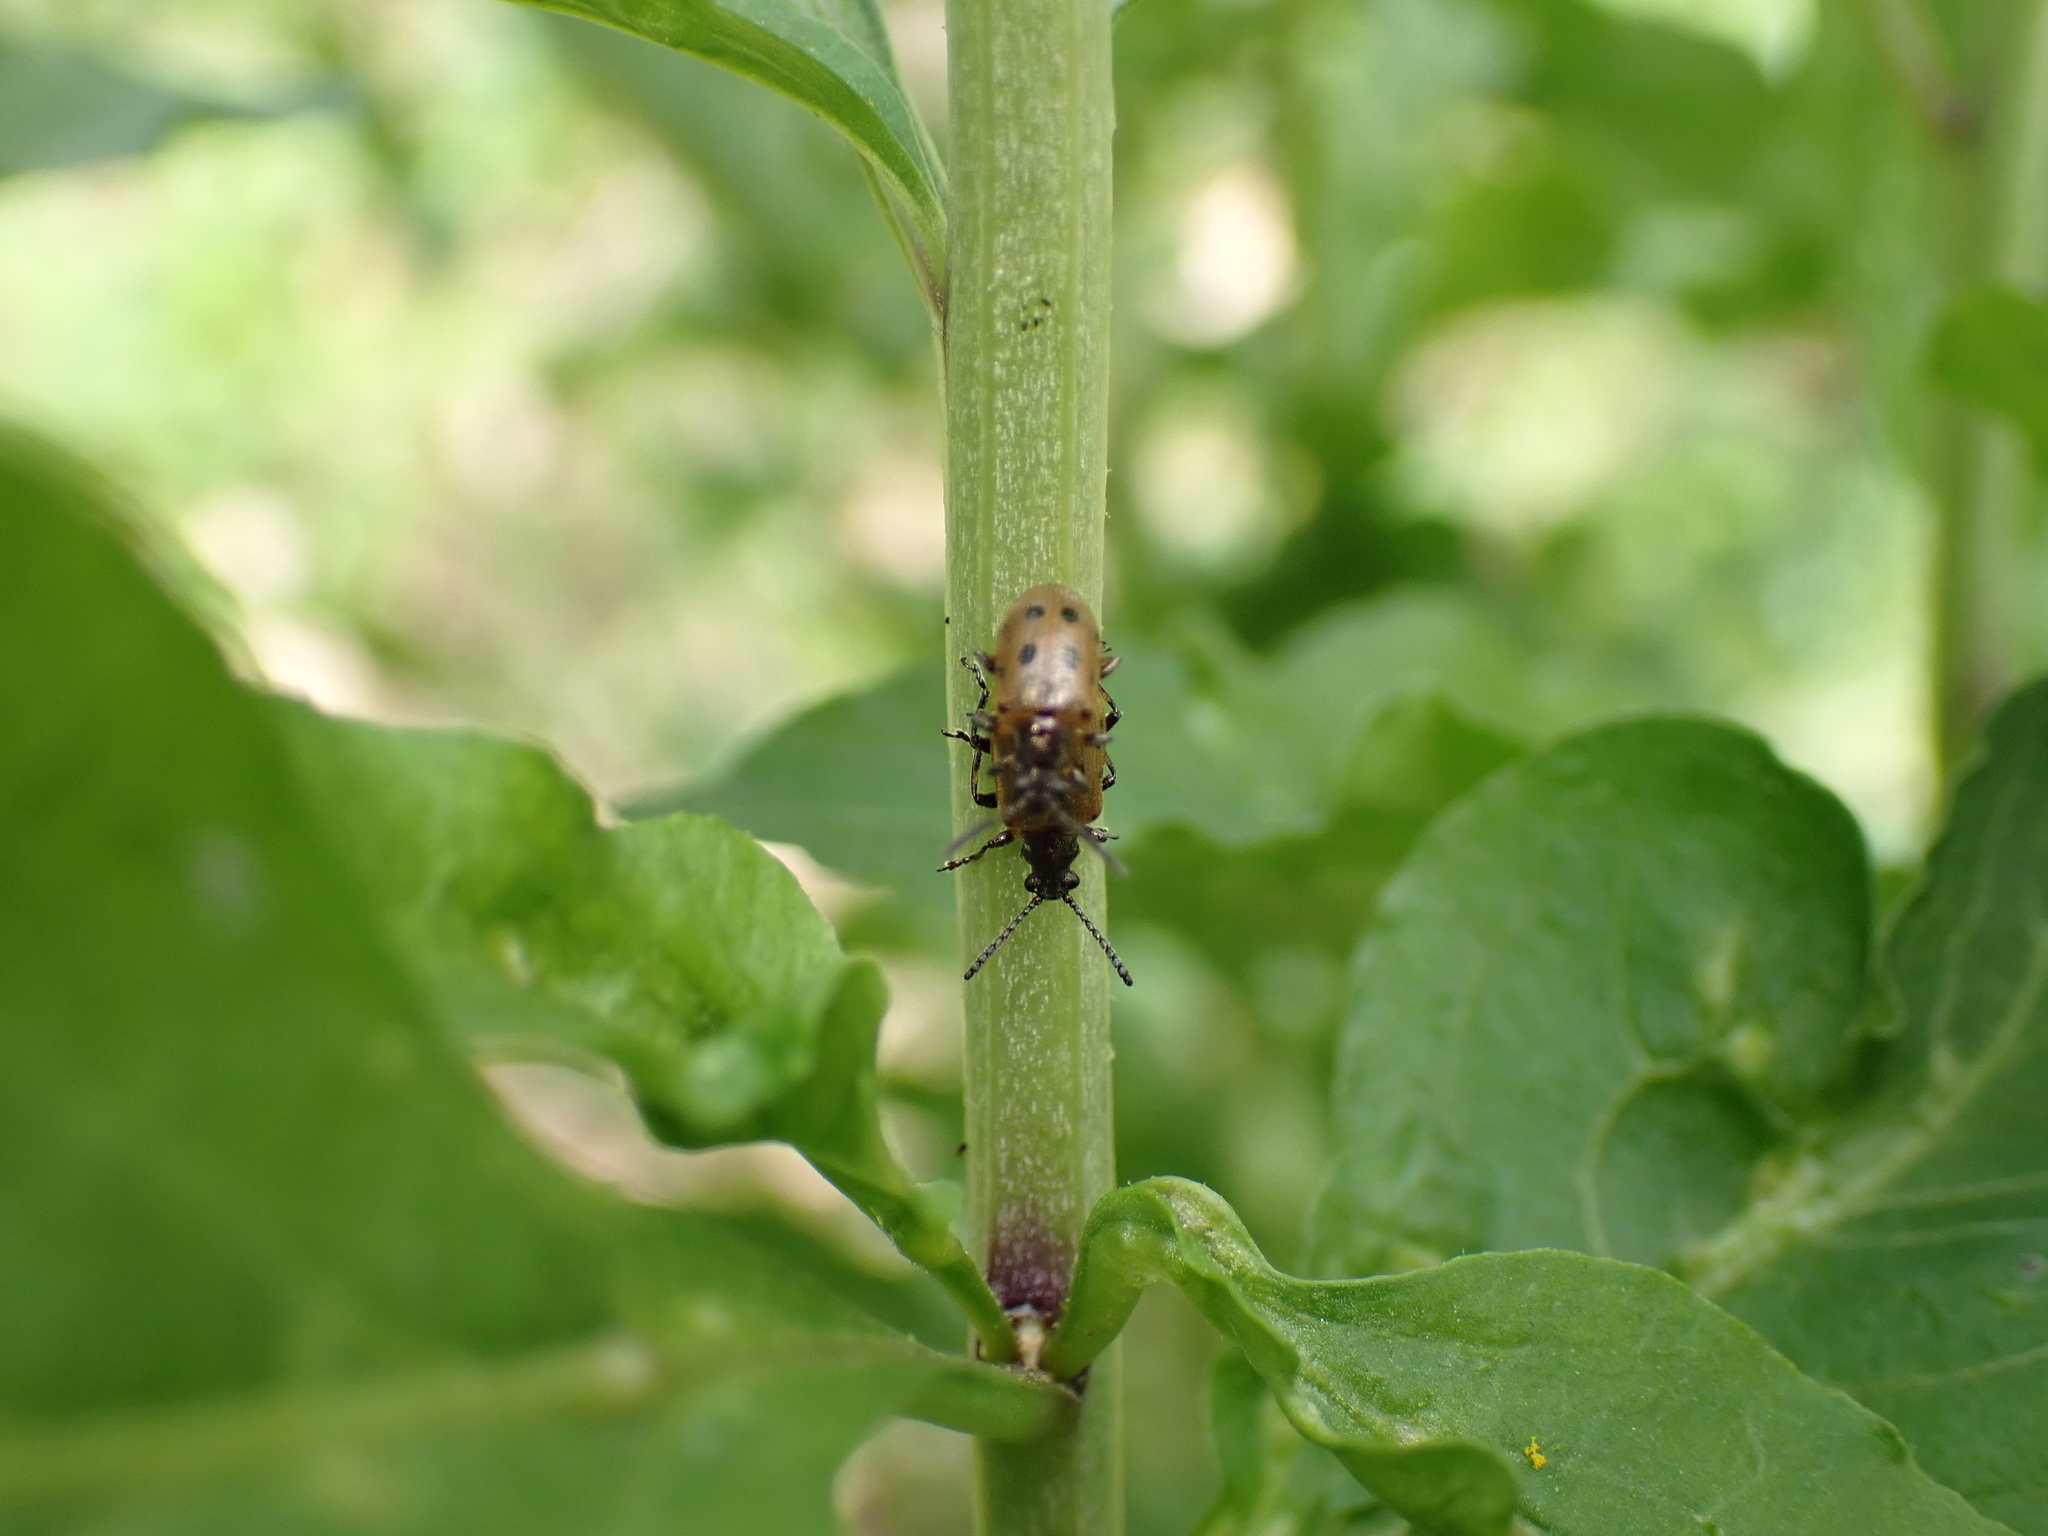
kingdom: Animalia
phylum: Arthropoda
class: Insecta
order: Coleoptera
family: Chrysomelidae
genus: Lema
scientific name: Lema decempunctata
